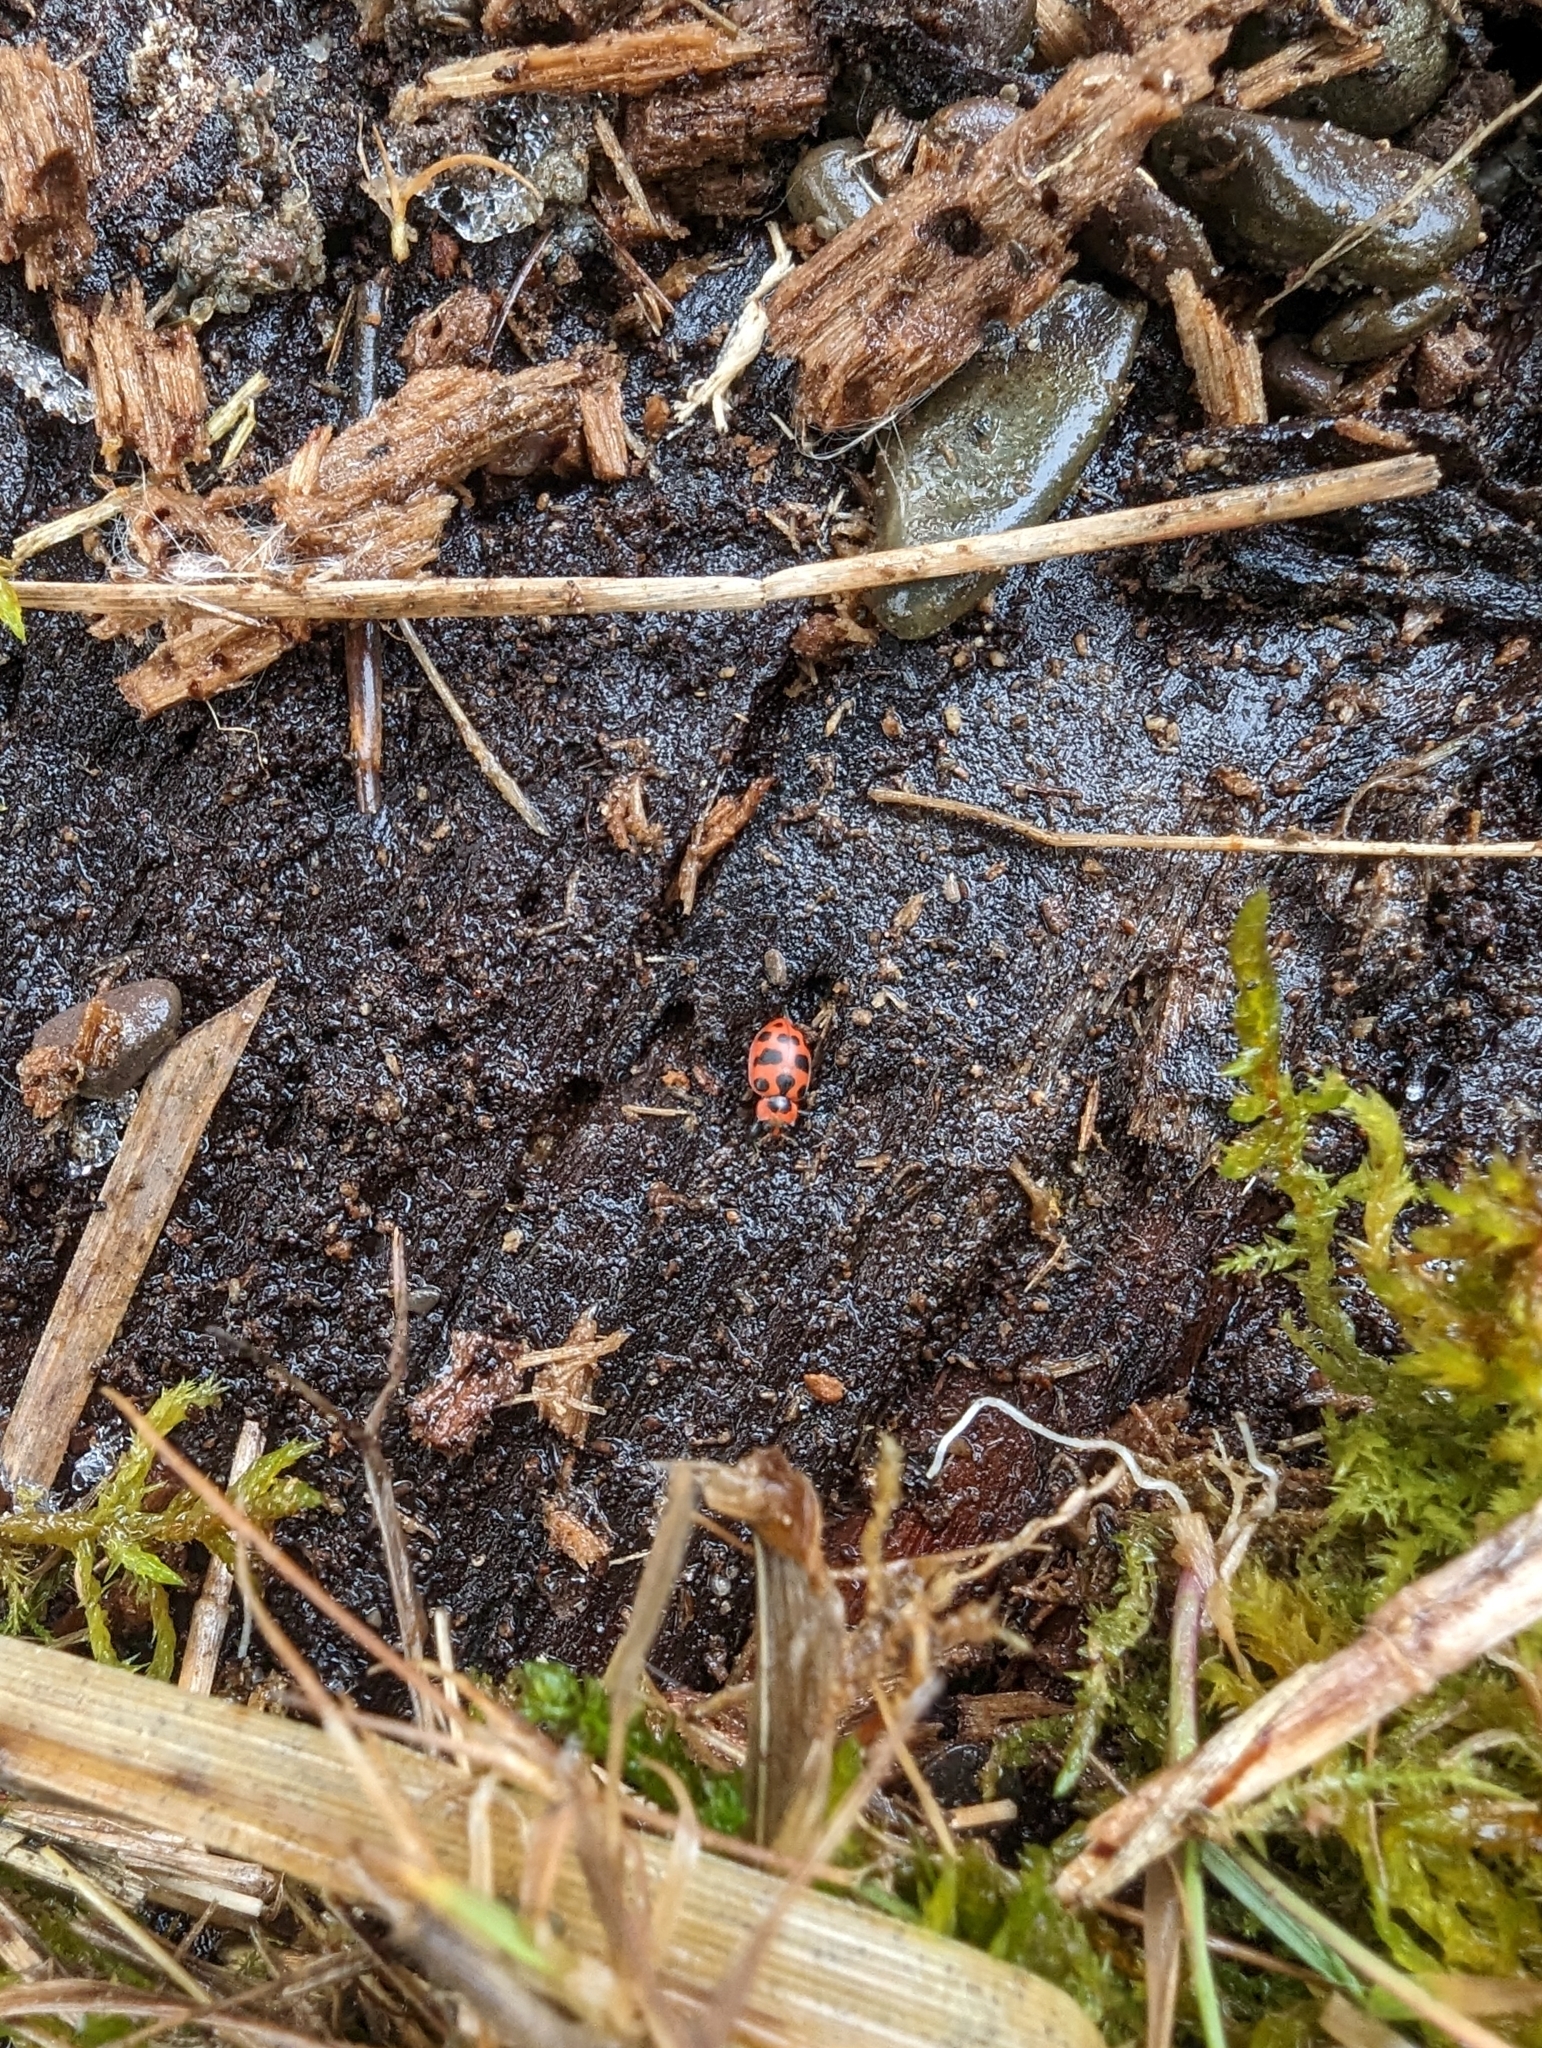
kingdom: Animalia
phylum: Arthropoda
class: Insecta
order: Coleoptera
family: Coccinellidae
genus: Coleomegilla
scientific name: Coleomegilla maculata
